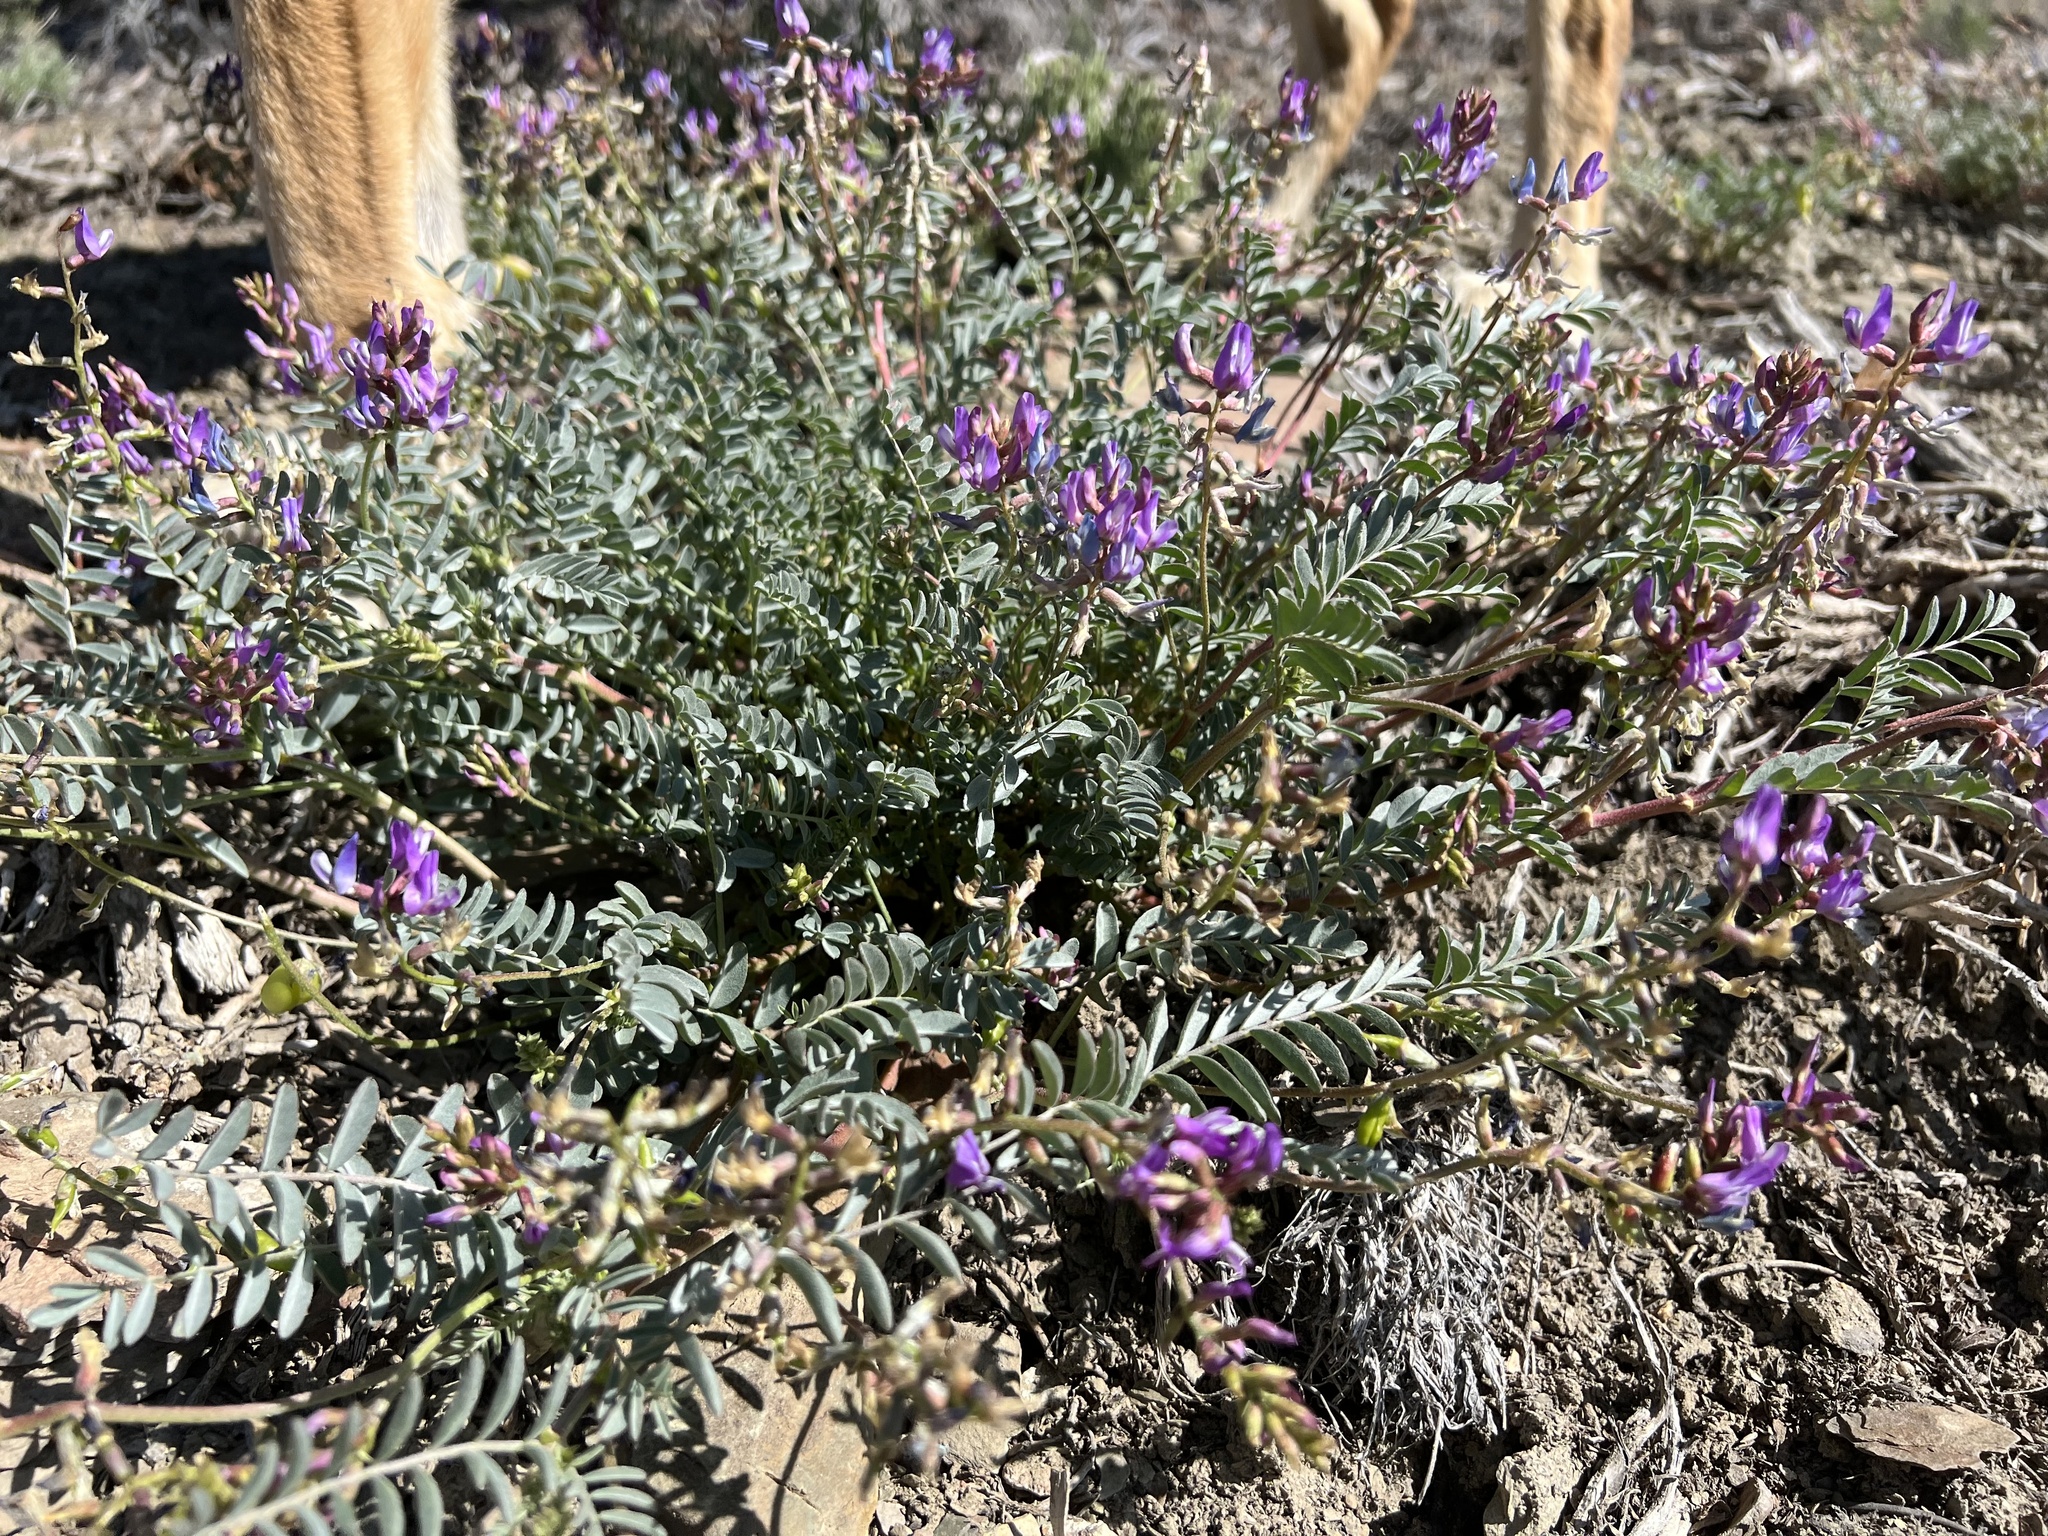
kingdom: Plantae
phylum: Tracheophyta
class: Magnoliopsida
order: Fabales
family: Fabaceae
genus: Astragalus
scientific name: Astragalus lentiginosus
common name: Freckled milkvetch
